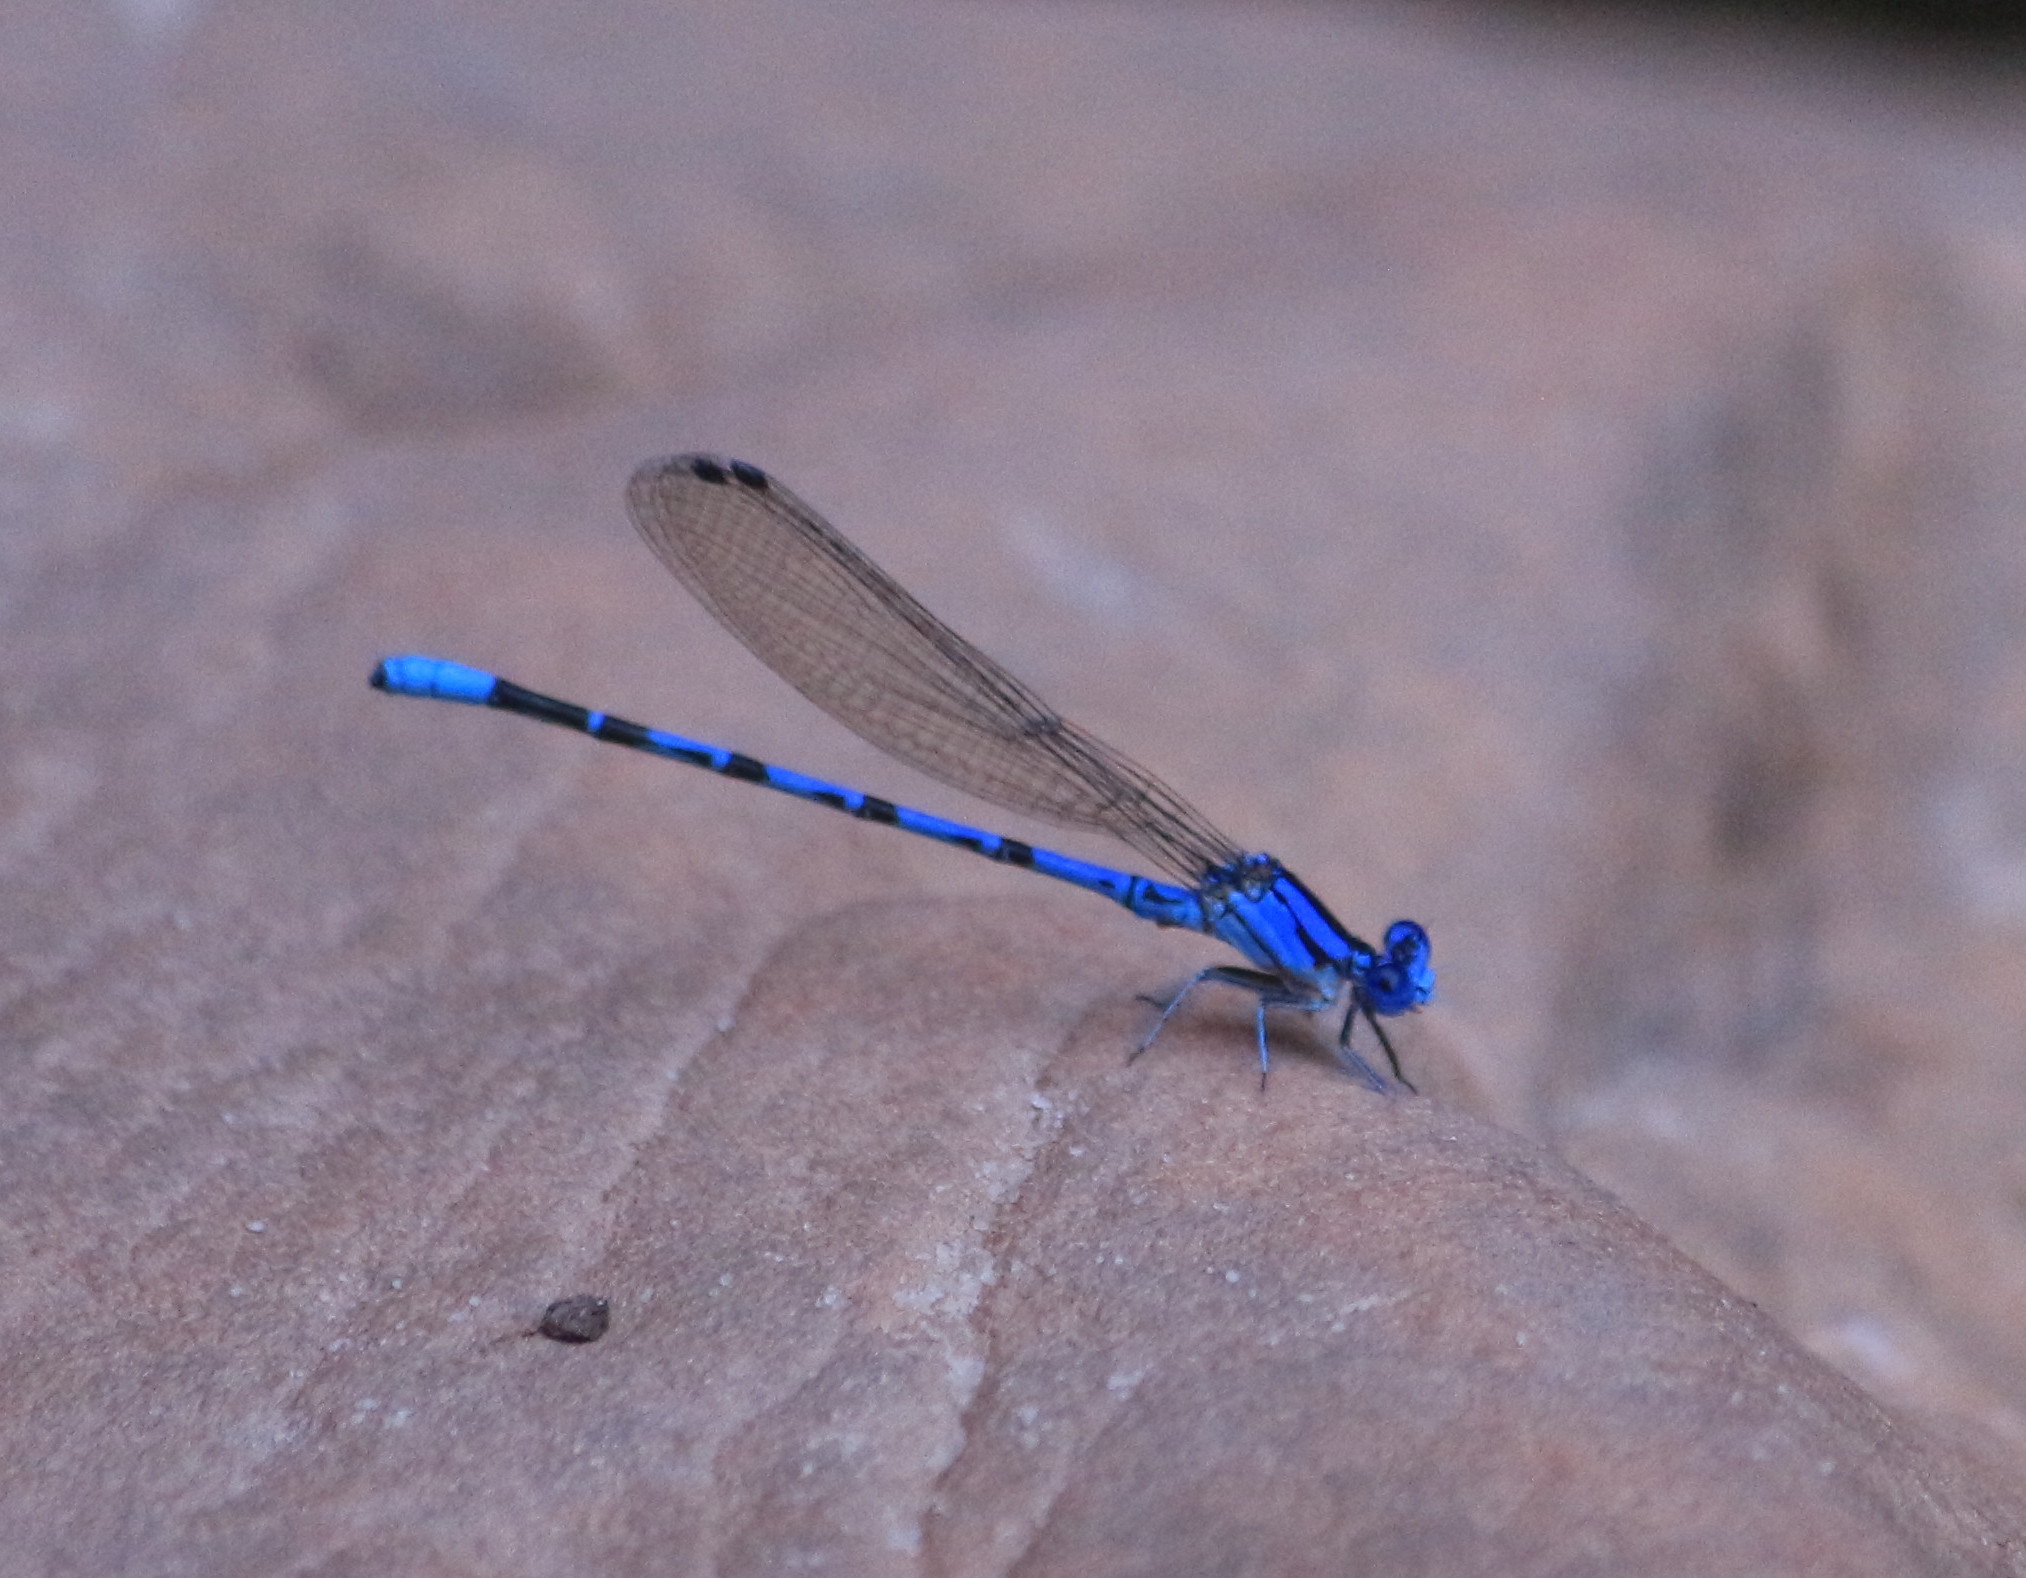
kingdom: Animalia
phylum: Arthropoda
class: Insecta
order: Odonata
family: Coenagrionidae
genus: Argia
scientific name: Argia vivida
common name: Vivid dancer
